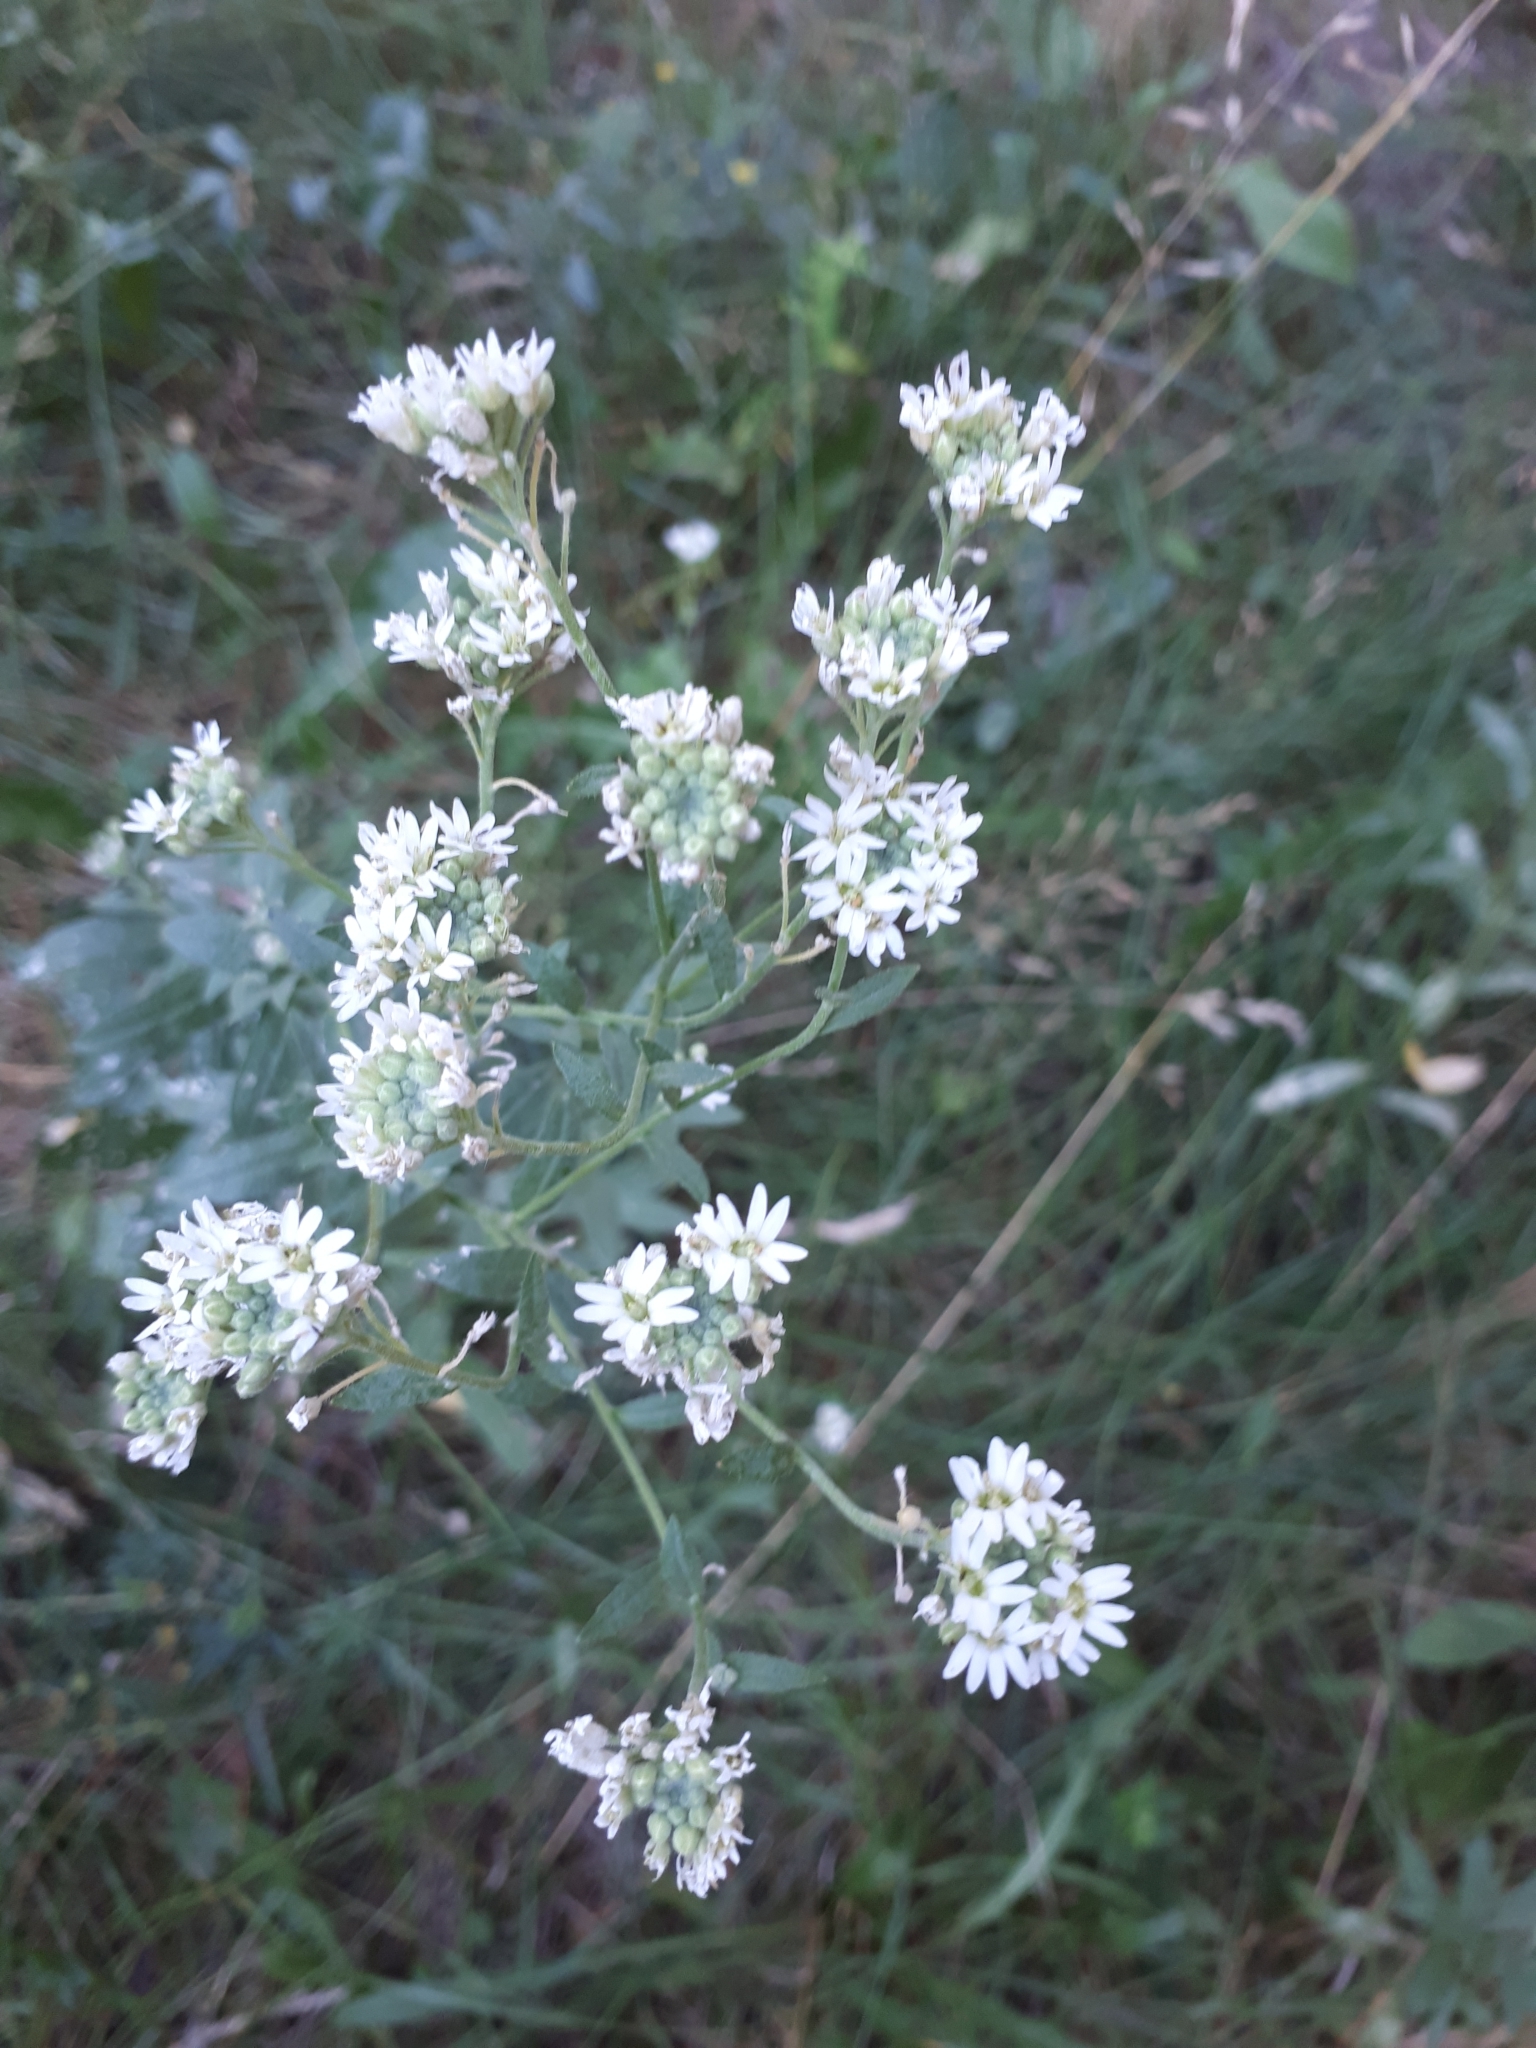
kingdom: Plantae
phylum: Tracheophyta
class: Magnoliopsida
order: Brassicales
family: Brassicaceae
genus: Berteroa
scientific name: Berteroa incana
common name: Hoary alison
